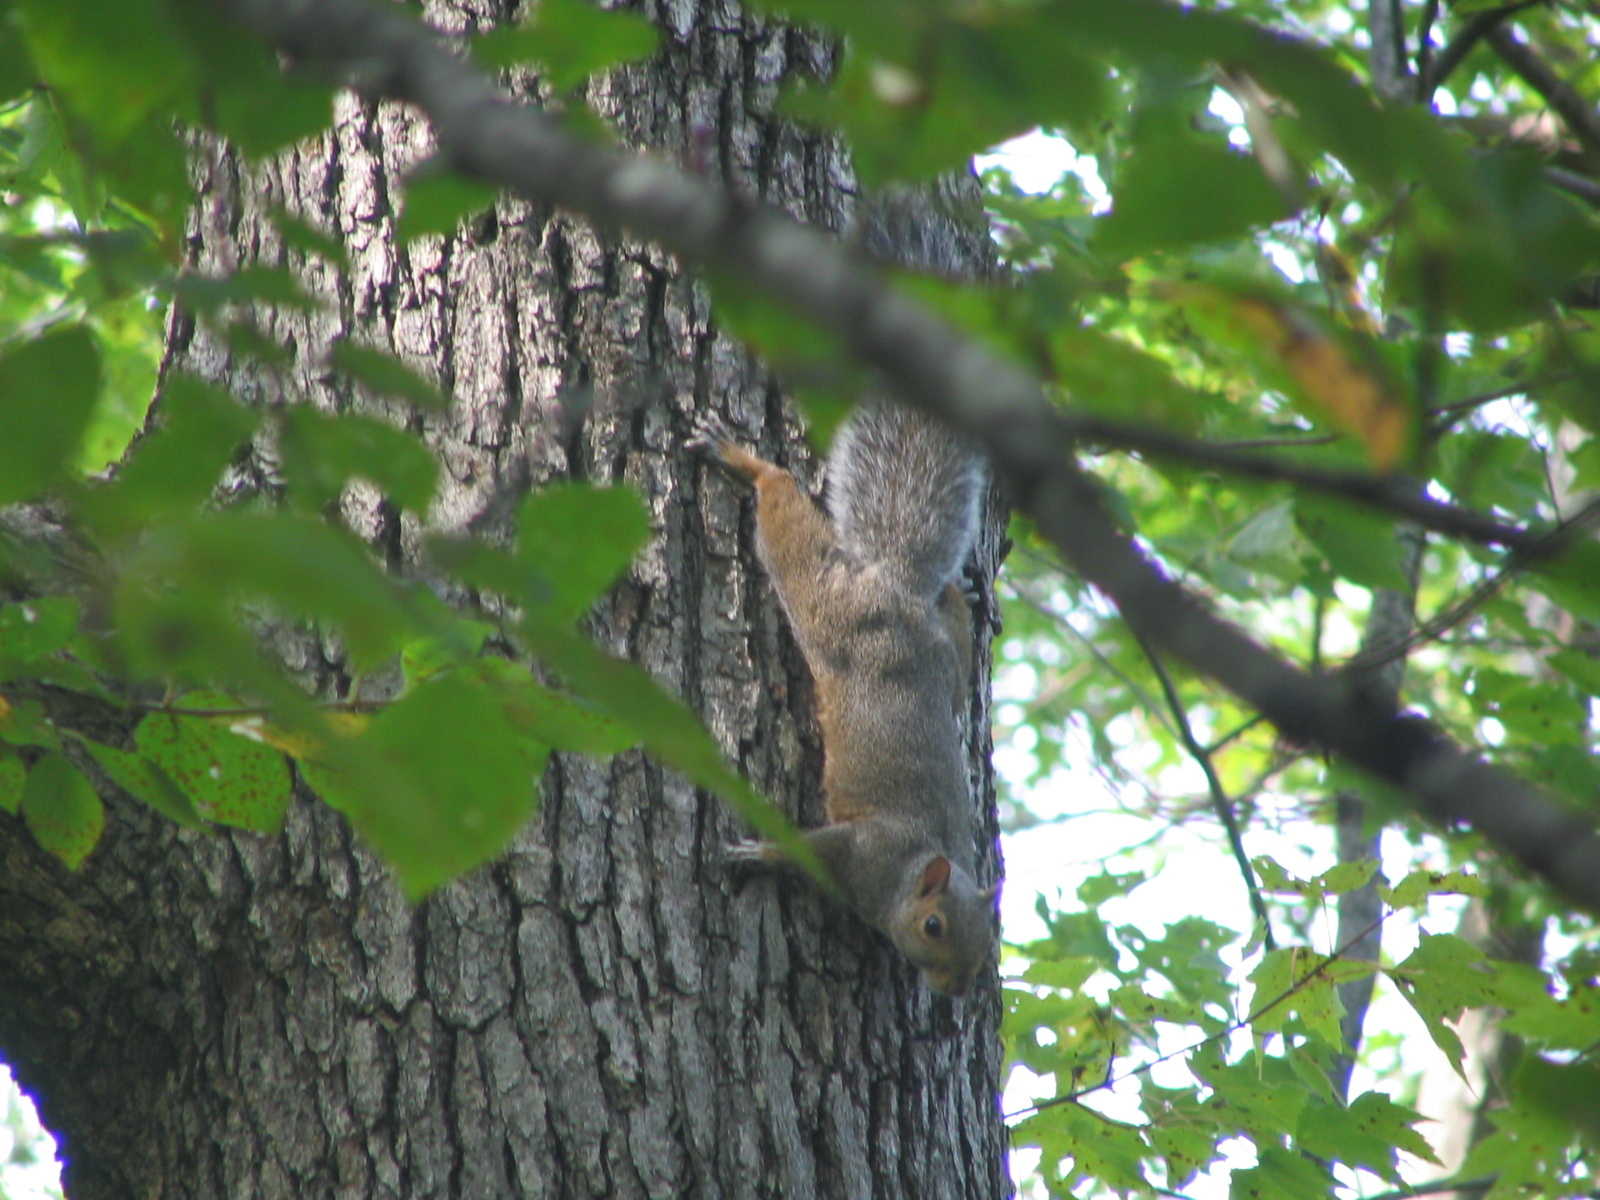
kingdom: Animalia
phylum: Chordata
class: Mammalia
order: Rodentia
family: Sciuridae
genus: Sciurus
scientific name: Sciurus carolinensis
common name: Eastern gray squirrel
